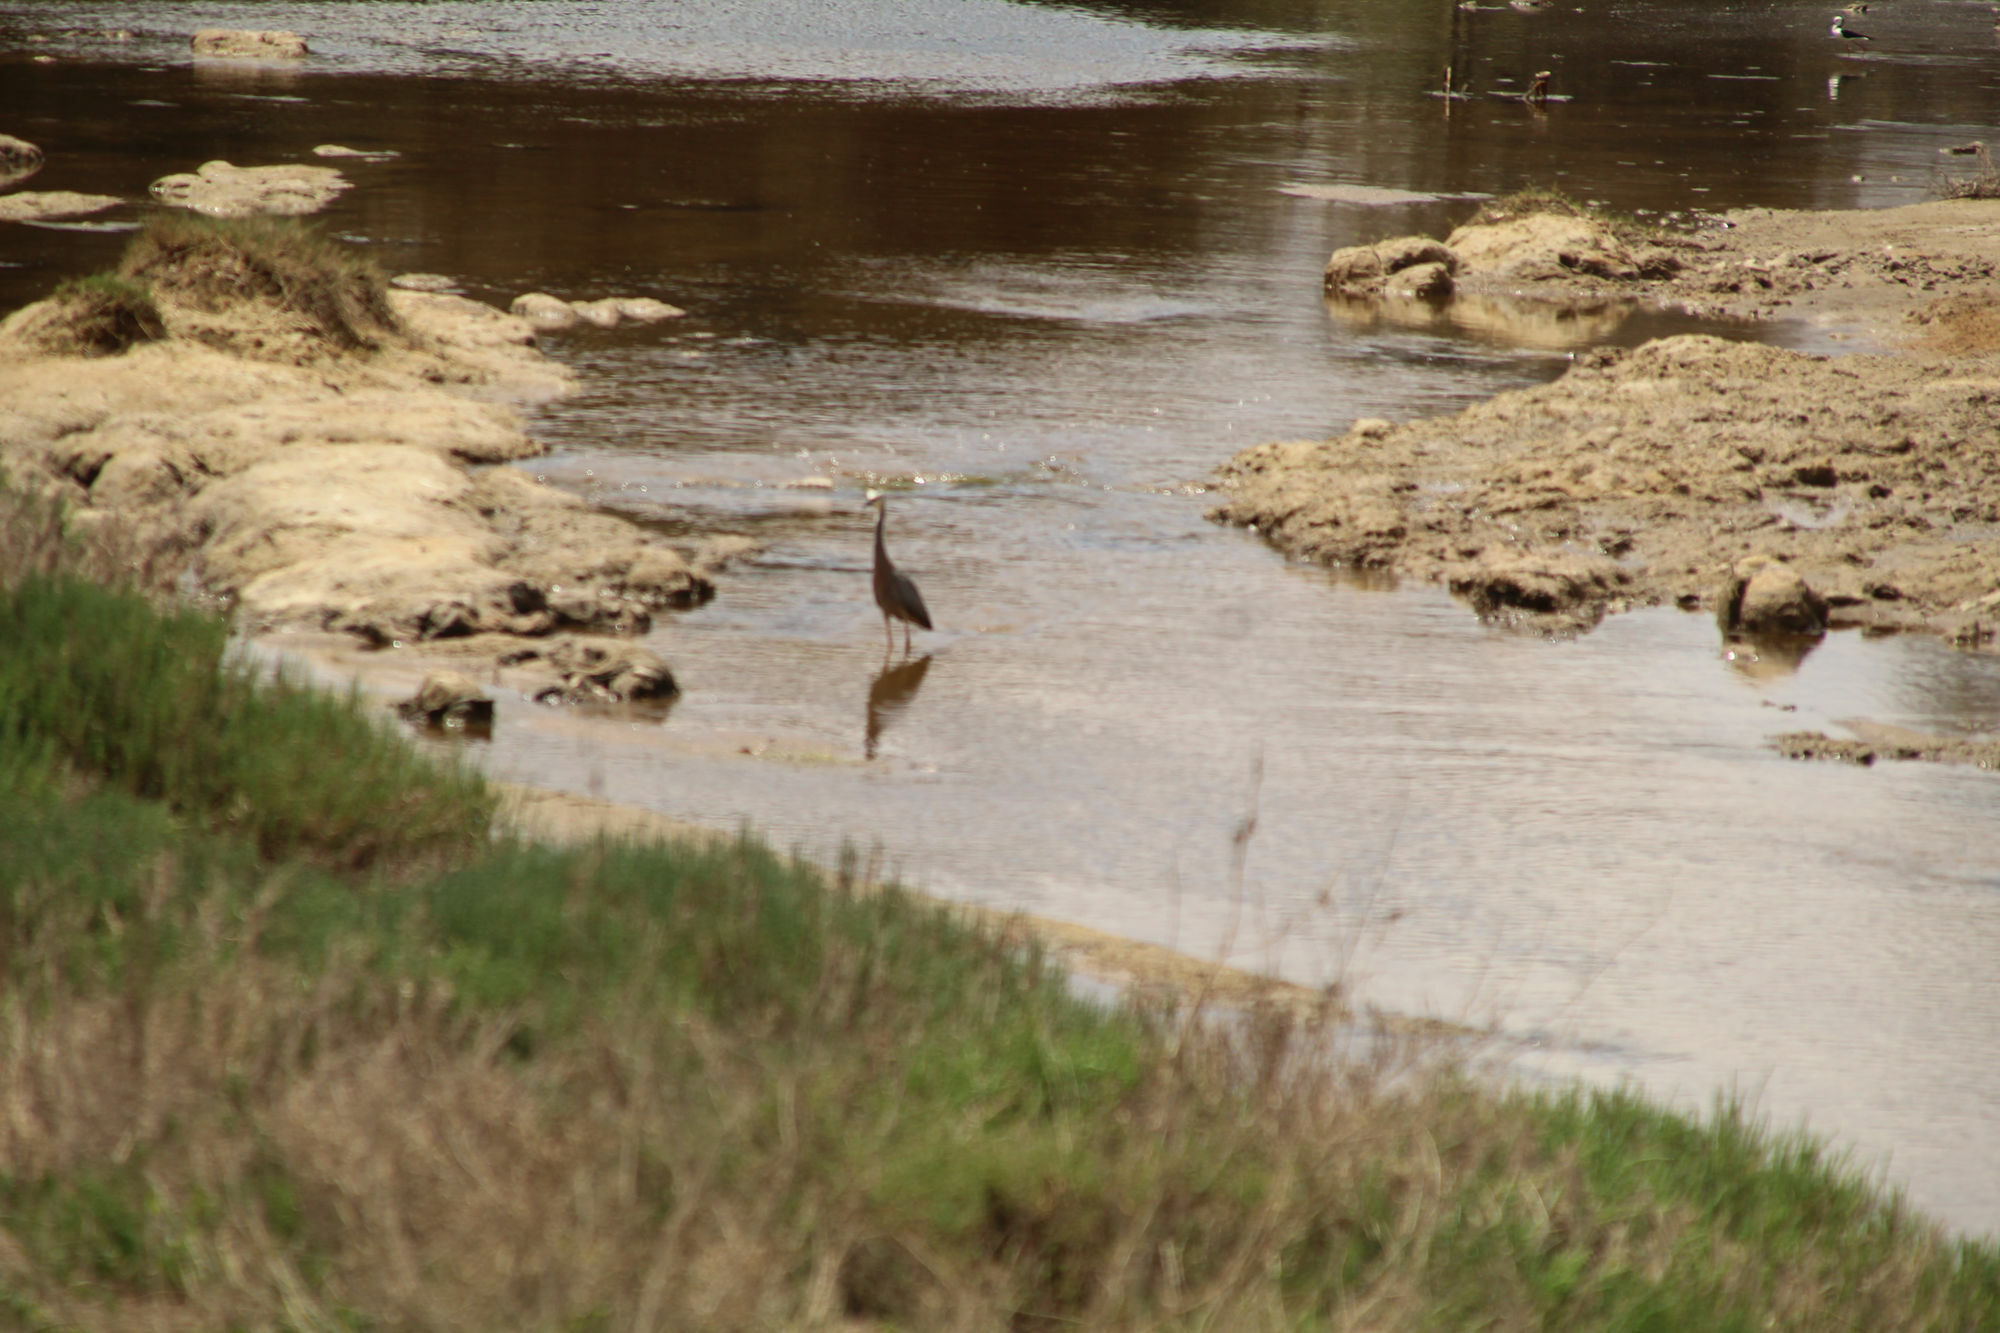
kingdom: Animalia
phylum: Chordata
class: Aves
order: Pelecaniformes
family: Ardeidae
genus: Egretta
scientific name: Egretta novaehollandiae
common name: White-faced heron
